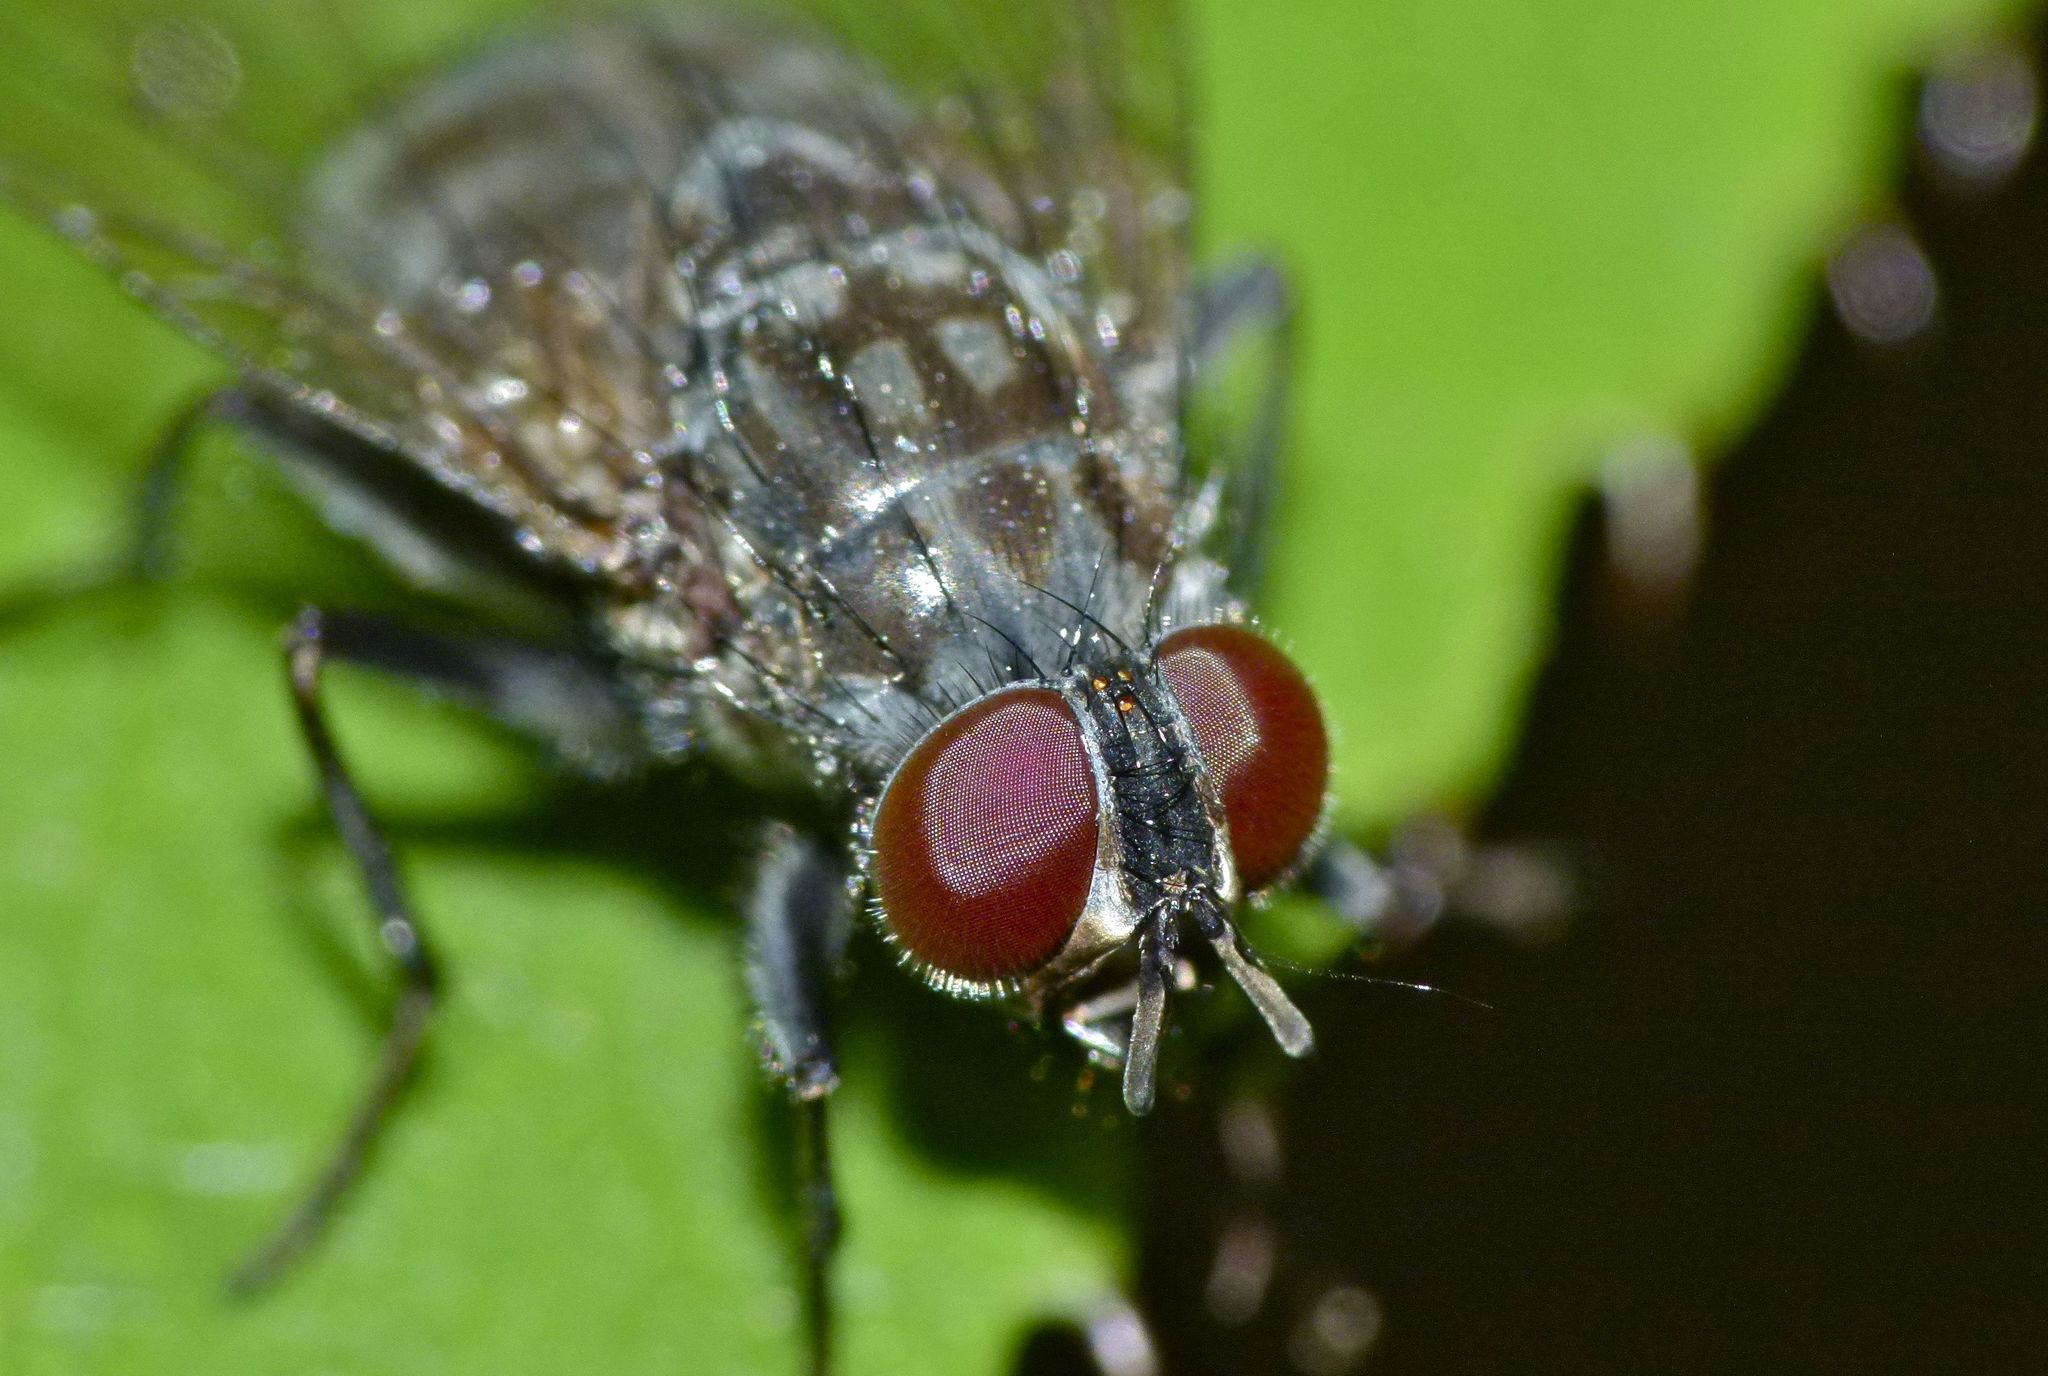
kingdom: Animalia
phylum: Arthropoda
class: Insecta
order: Diptera
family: Muscidae
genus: Spilogona
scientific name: Spilogona tenuicornis
